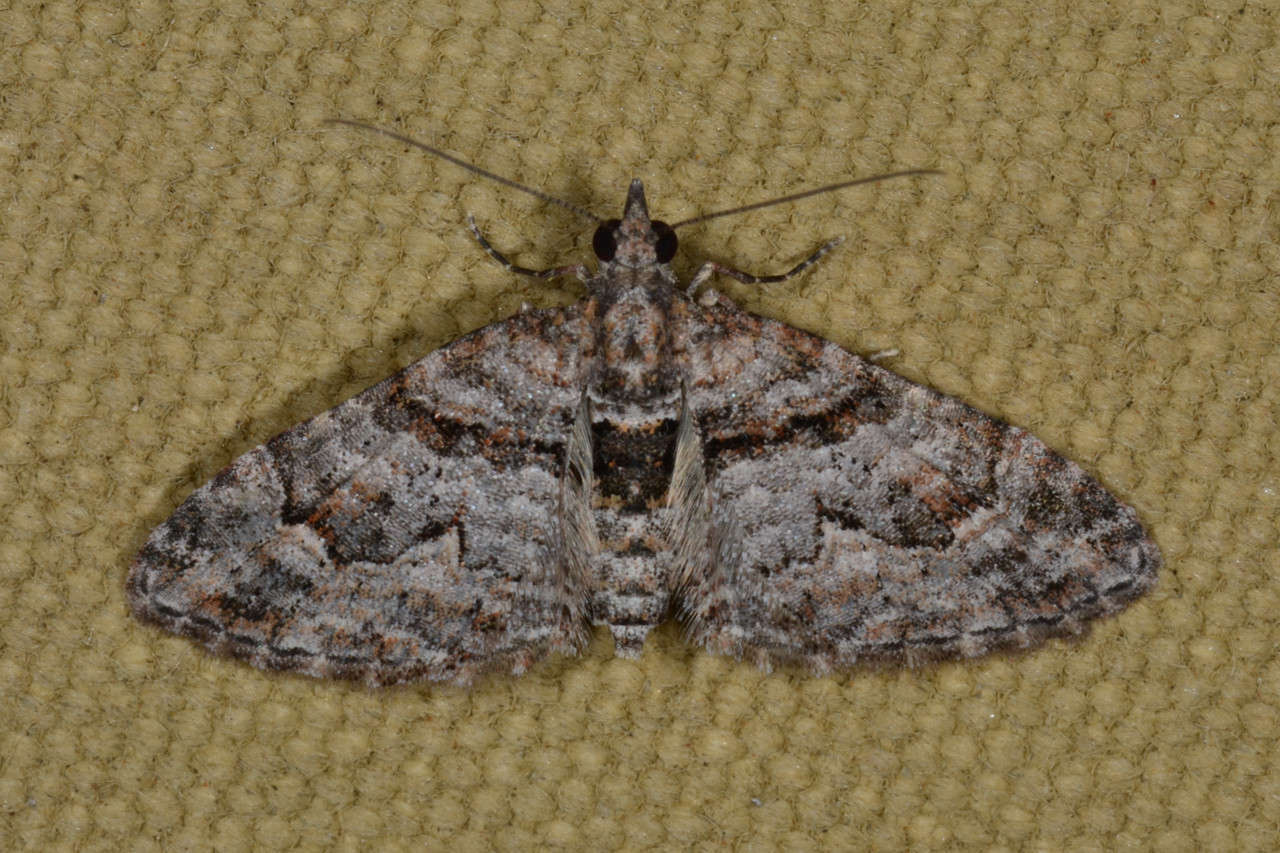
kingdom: Animalia
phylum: Arthropoda
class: Insecta
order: Lepidoptera
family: Geometridae
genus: Phrissogonus
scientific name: Phrissogonus laticostata
